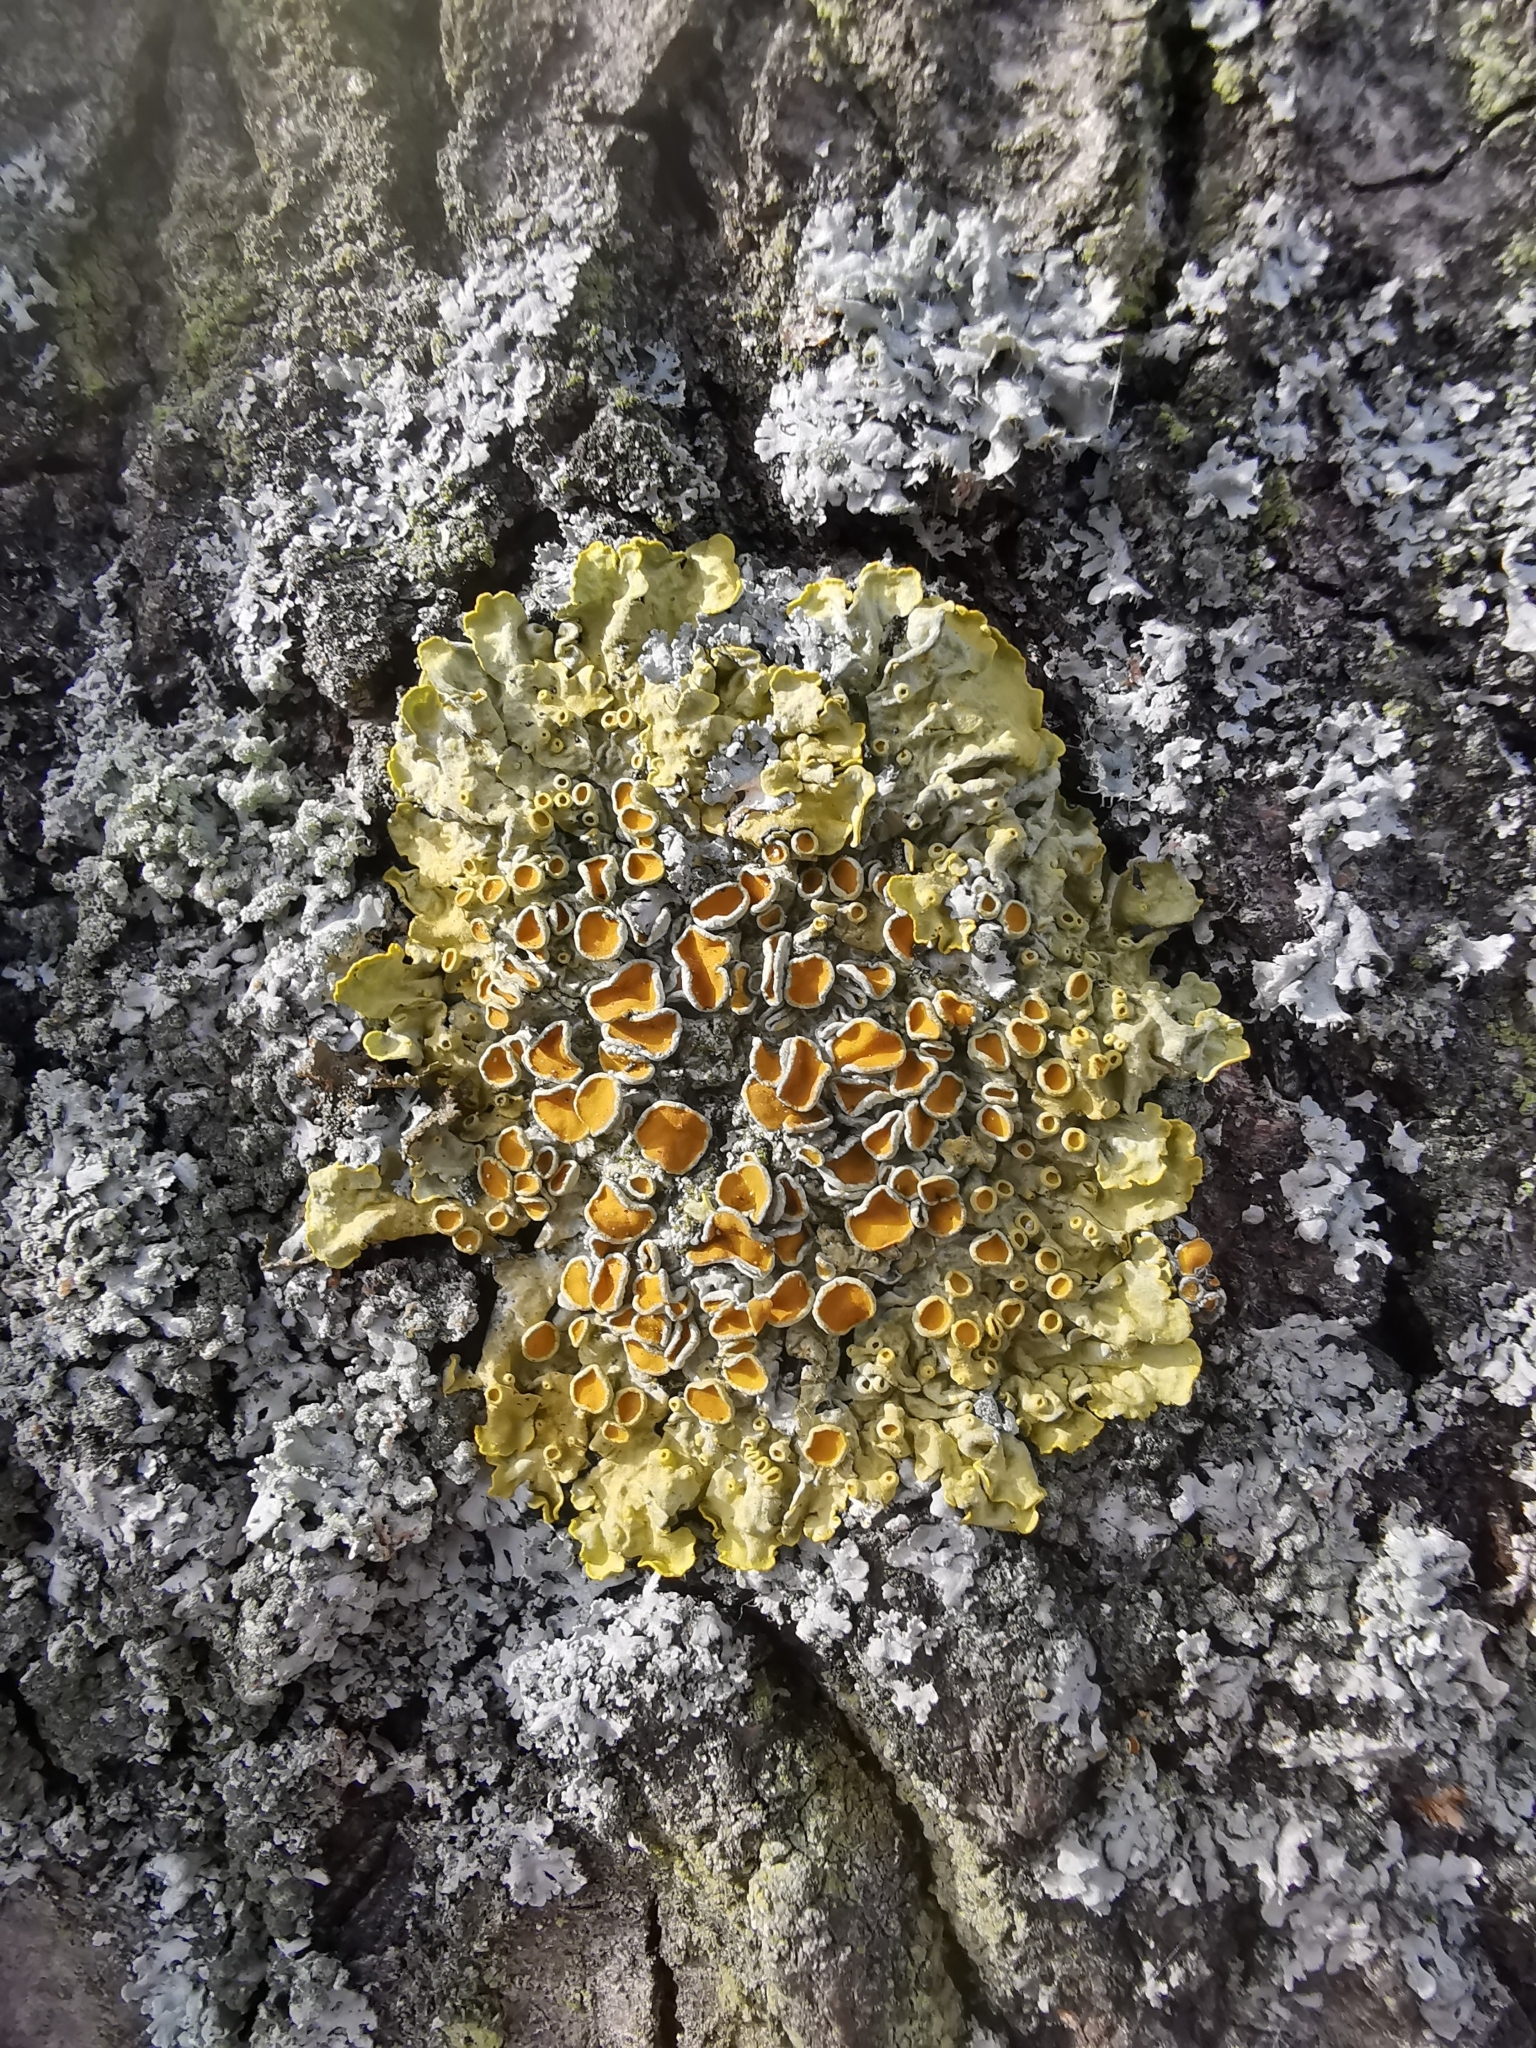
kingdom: Fungi
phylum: Ascomycota
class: Lecanoromycetes
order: Teloschistales
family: Teloschistaceae
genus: Xanthoria
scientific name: Xanthoria parietina
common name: Common orange lichen
